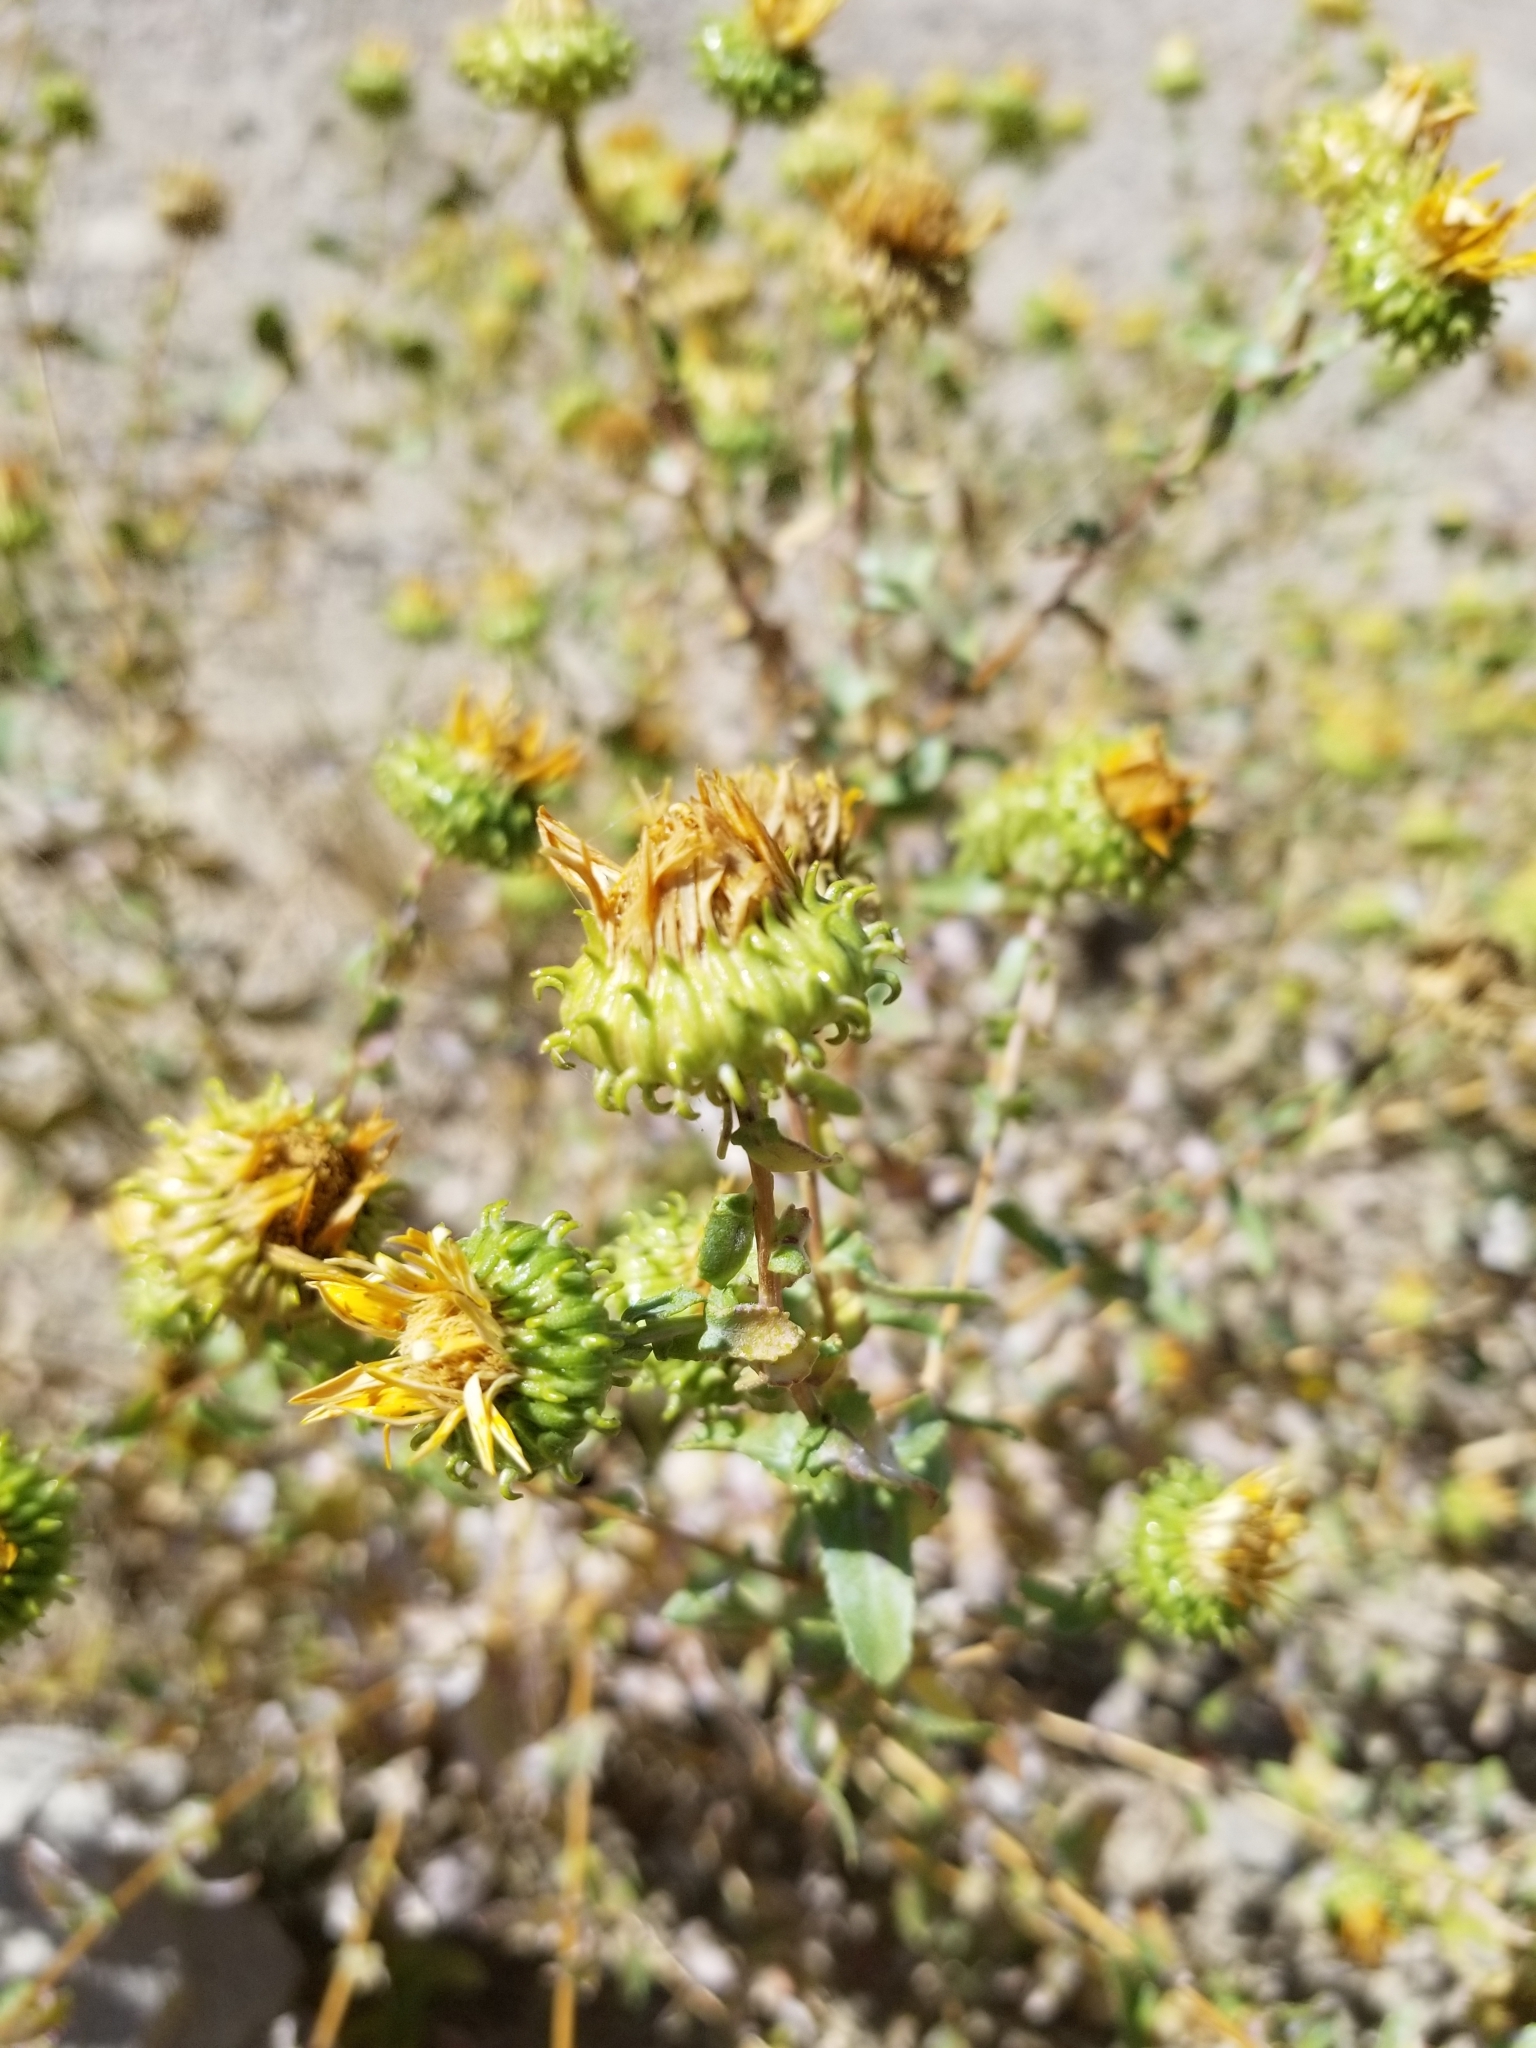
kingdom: Plantae
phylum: Tracheophyta
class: Magnoliopsida
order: Asterales
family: Asteraceae
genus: Grindelia
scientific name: Grindelia squarrosa
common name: Curly-cup gumweed
